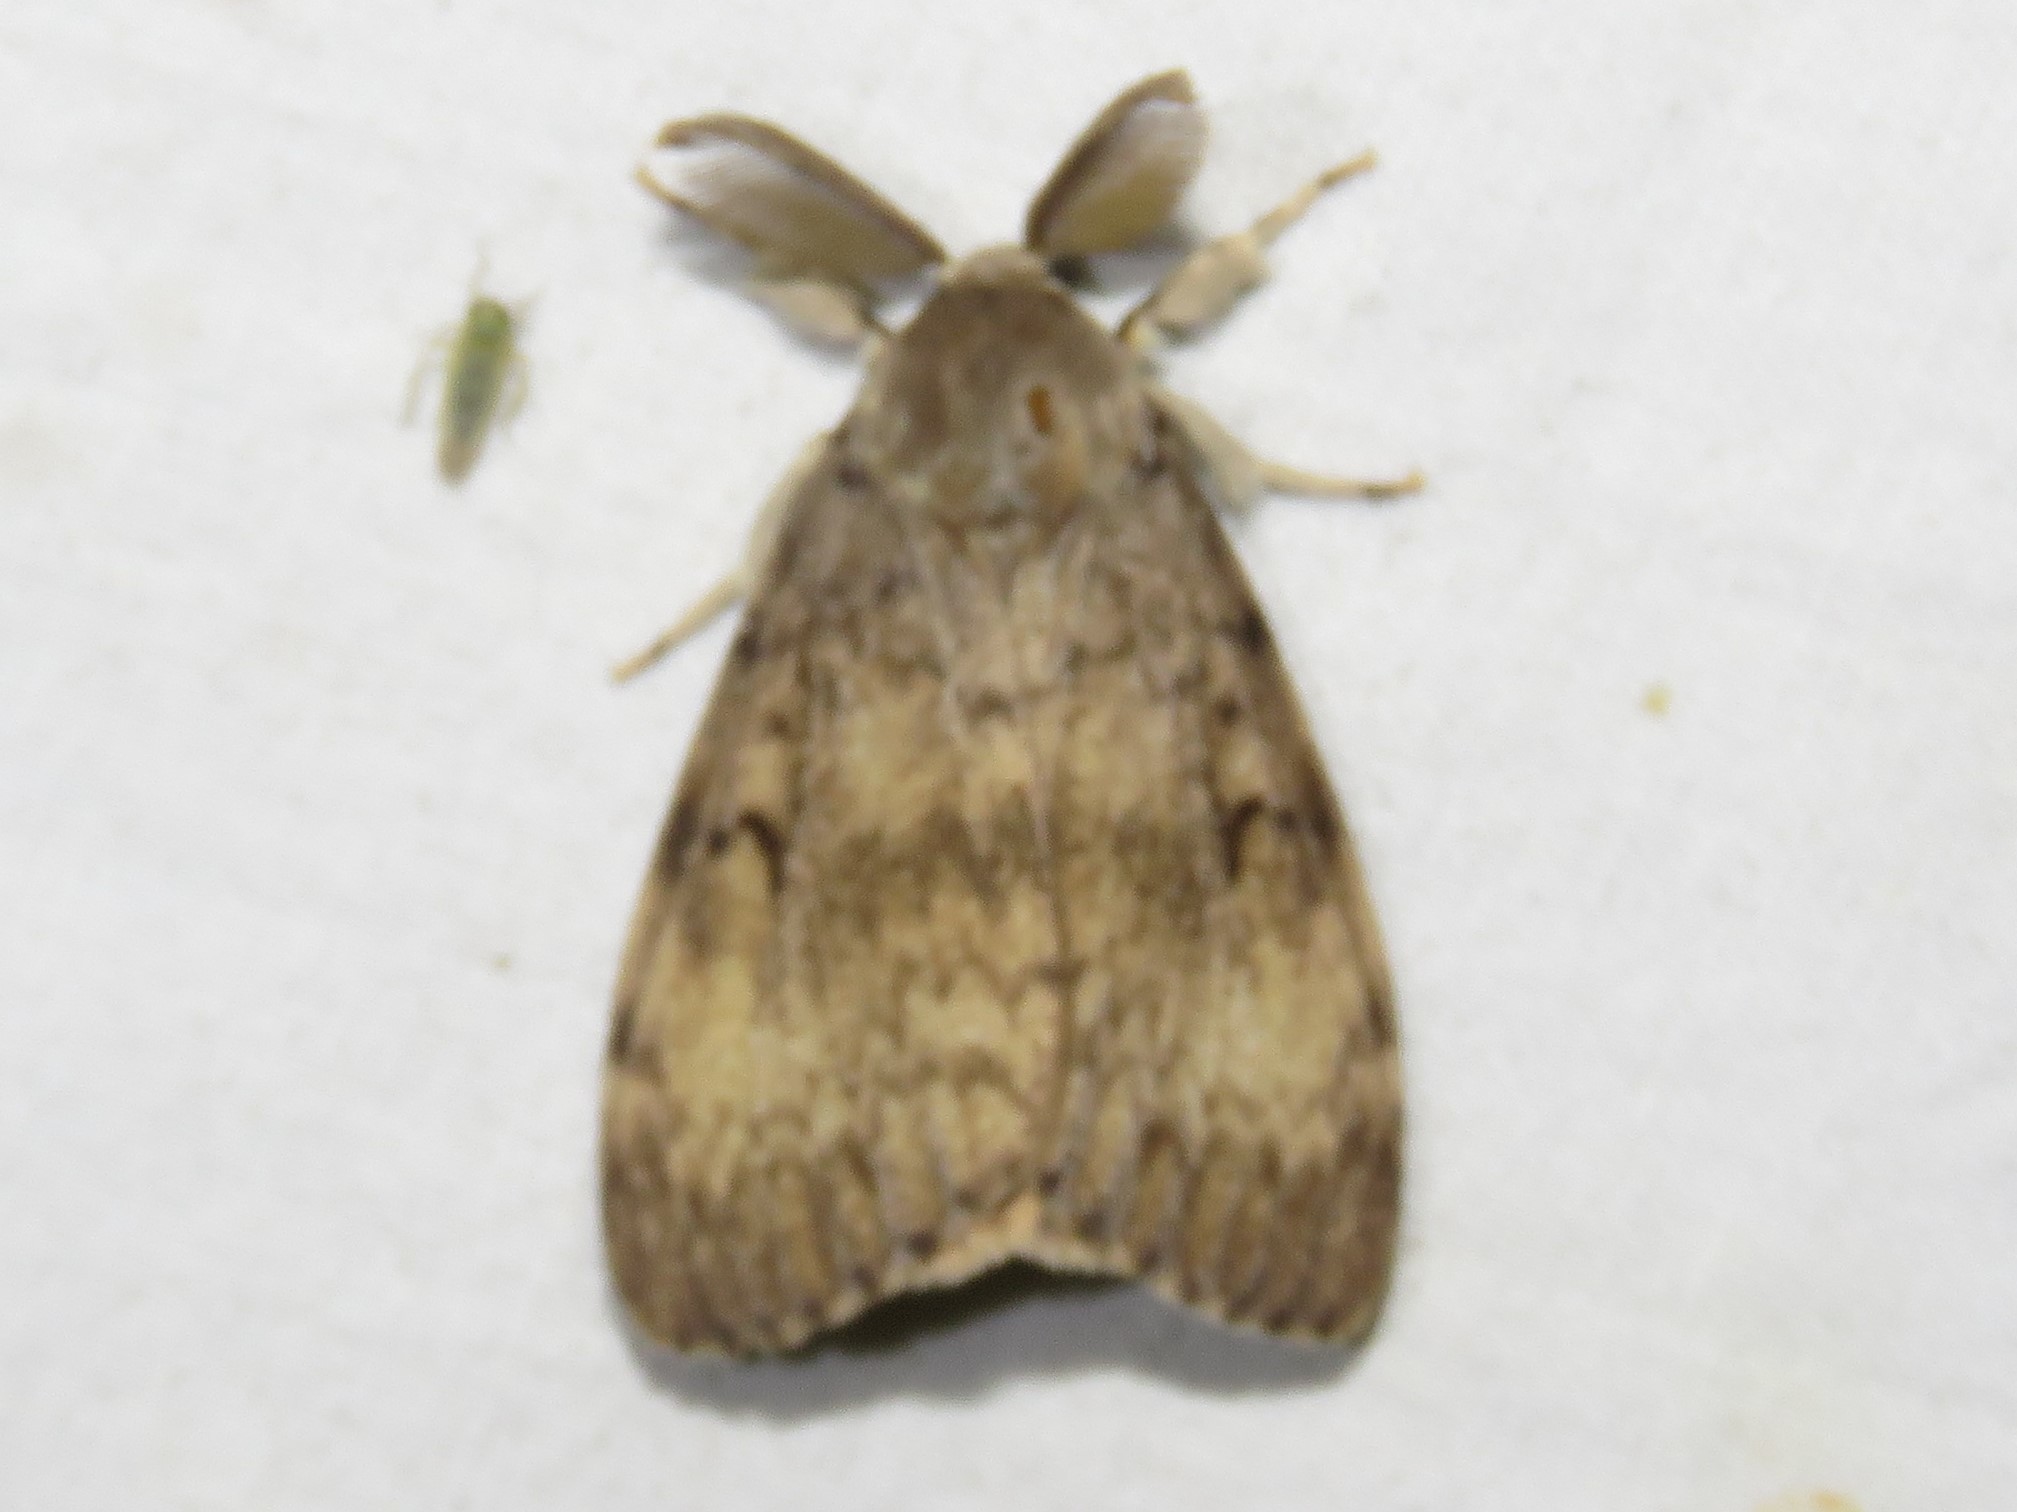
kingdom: Animalia
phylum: Arthropoda
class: Insecta
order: Lepidoptera
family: Erebidae
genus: Lymantria
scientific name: Lymantria dispar
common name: Gypsy moth
